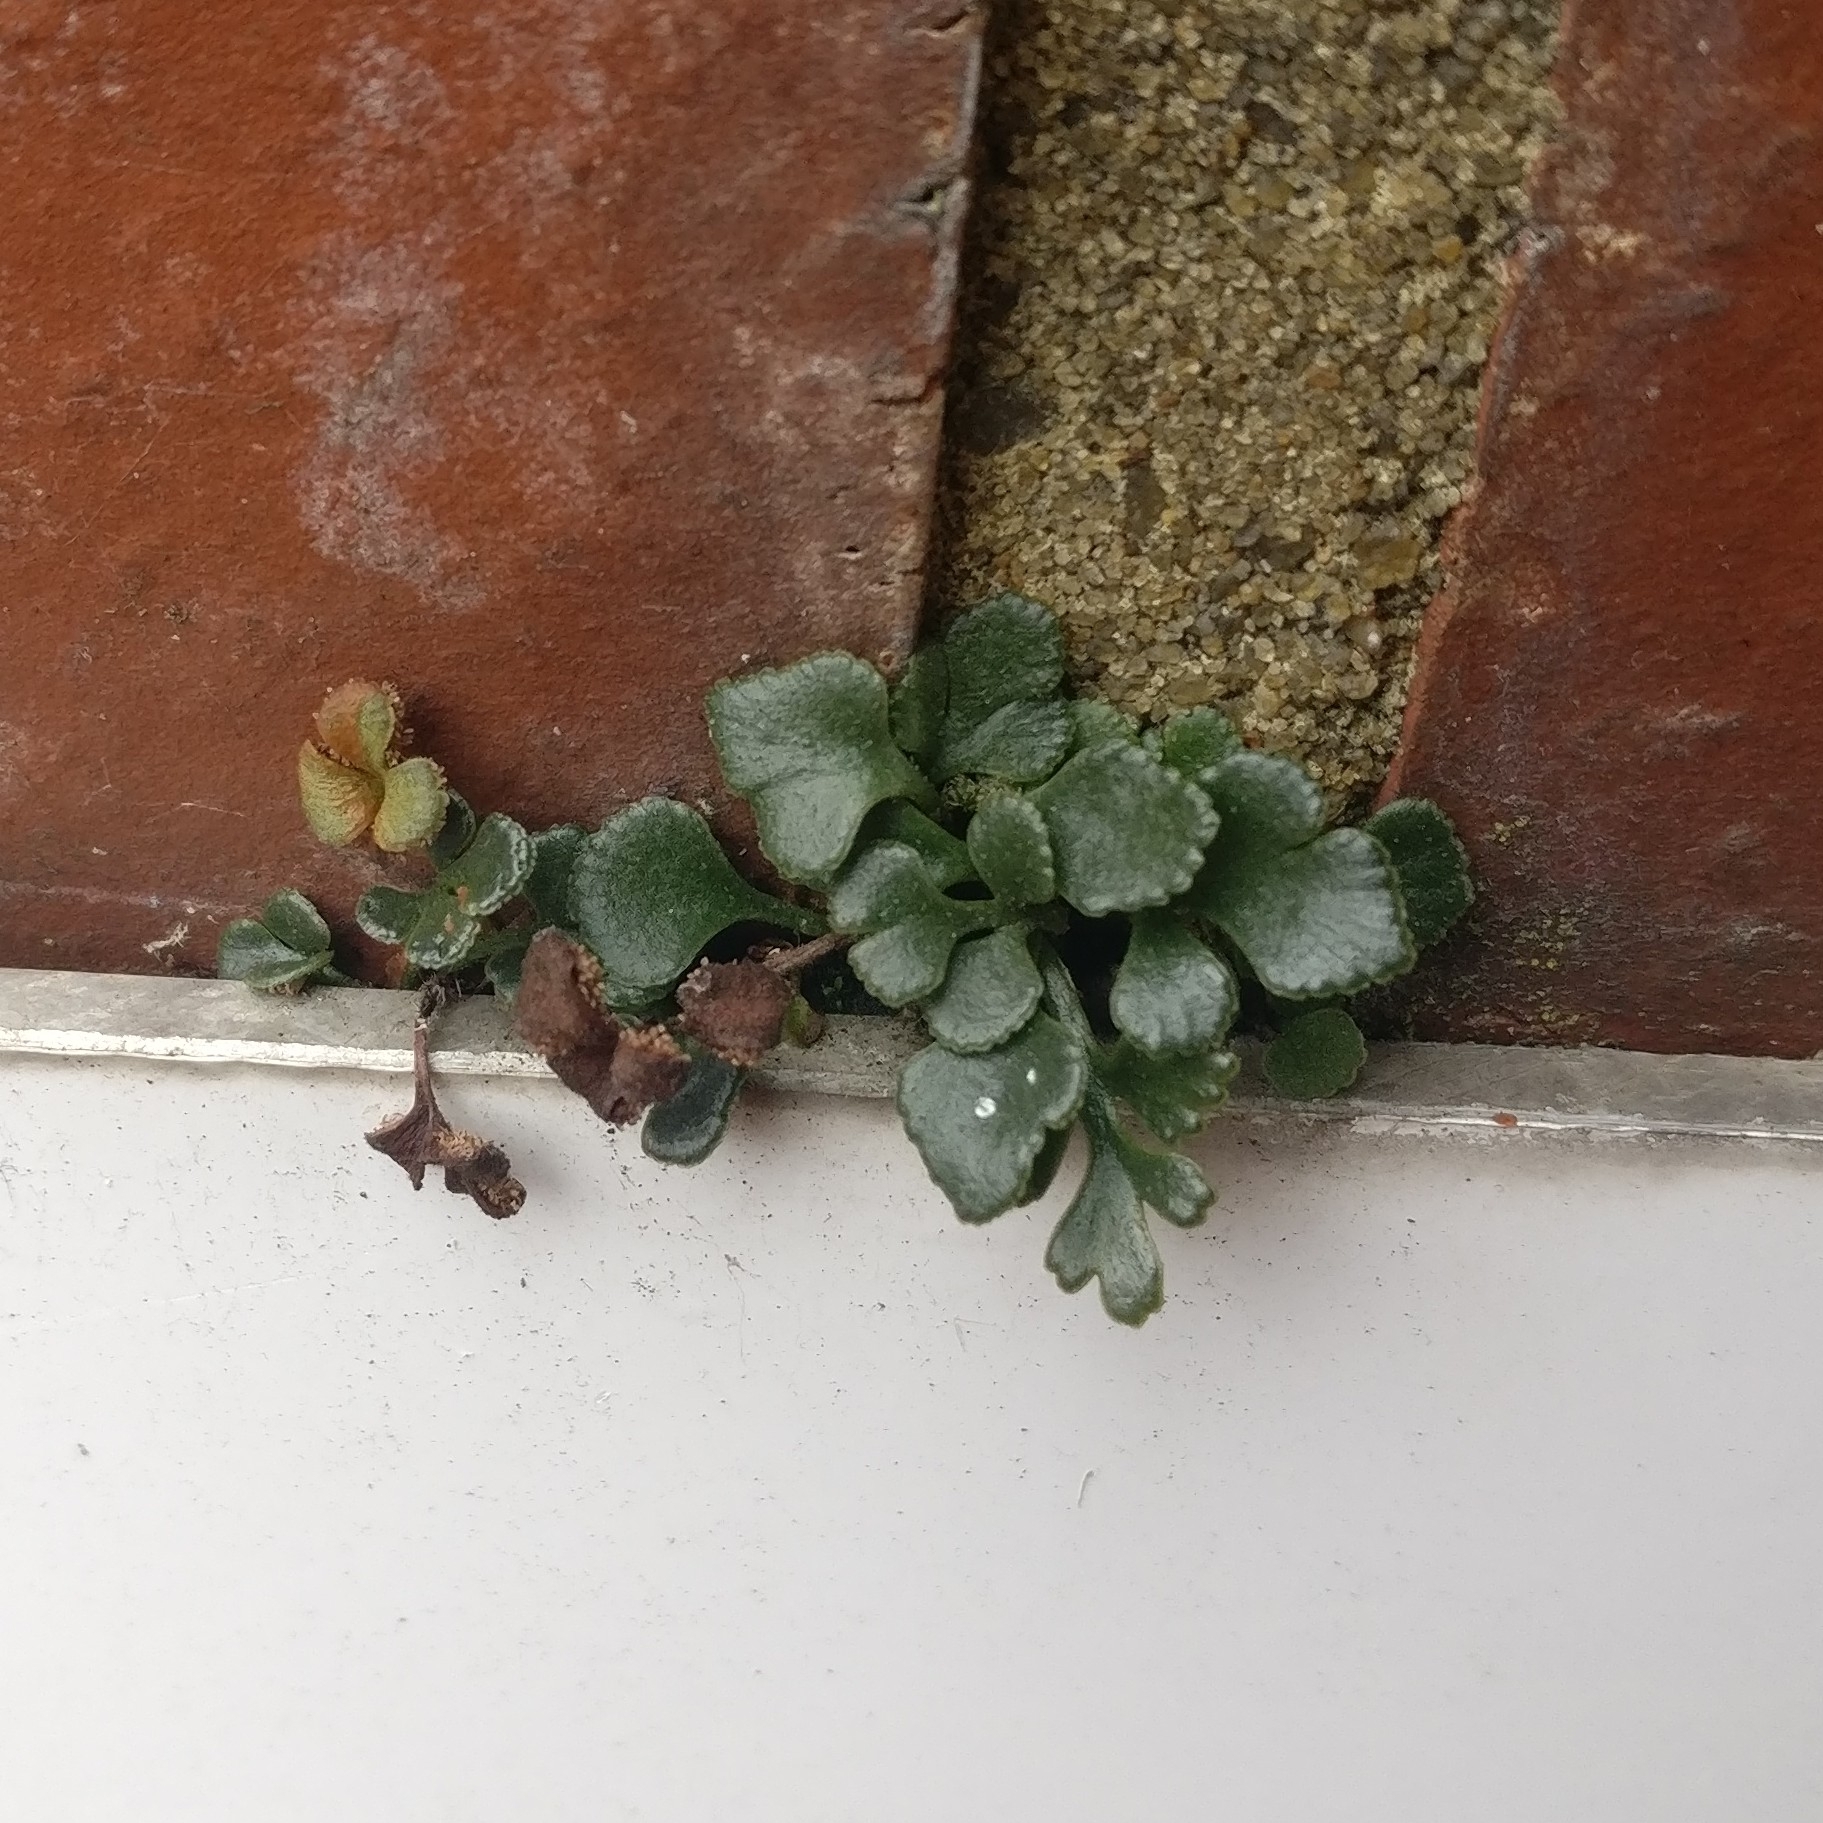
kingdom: Plantae
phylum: Tracheophyta
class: Polypodiopsida
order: Polypodiales
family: Aspleniaceae
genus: Asplenium
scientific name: Asplenium ruta-muraria
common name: Wall-rue
